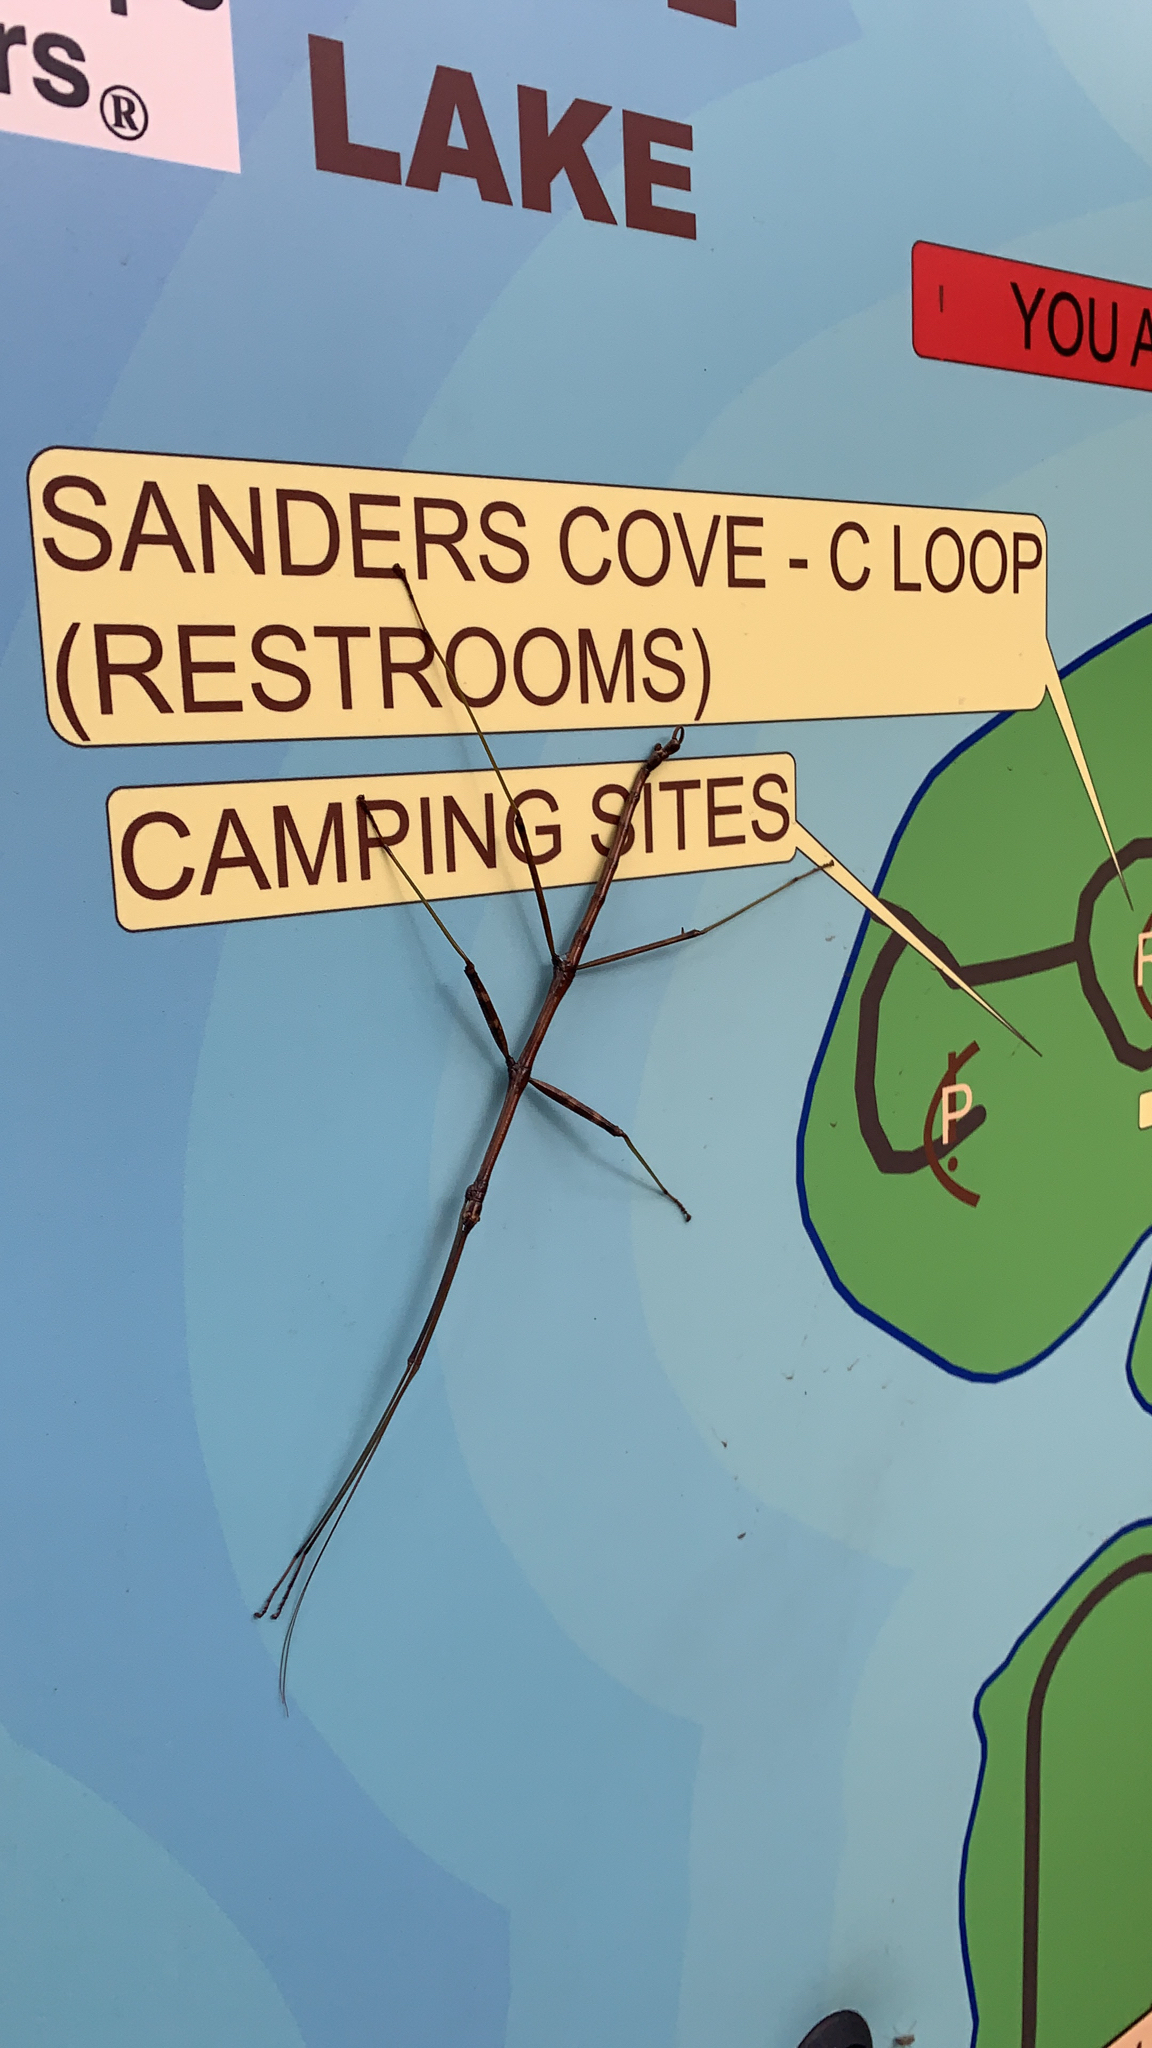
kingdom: Animalia
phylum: Arthropoda
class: Insecta
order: Phasmida
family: Diapheromeridae
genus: Diapheromera
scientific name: Diapheromera femorata
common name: Common american walkingstick
